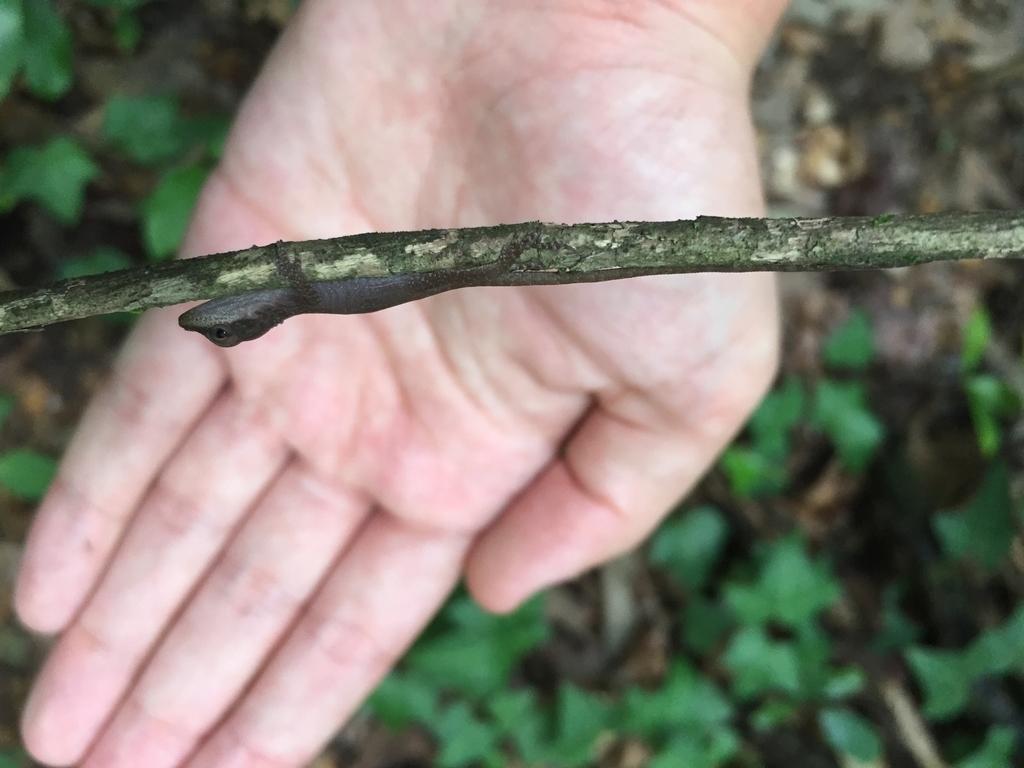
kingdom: Animalia
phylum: Chordata
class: Squamata
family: Dactyloidae
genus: Anolis
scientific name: Anolis carolinensis
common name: Green anole
